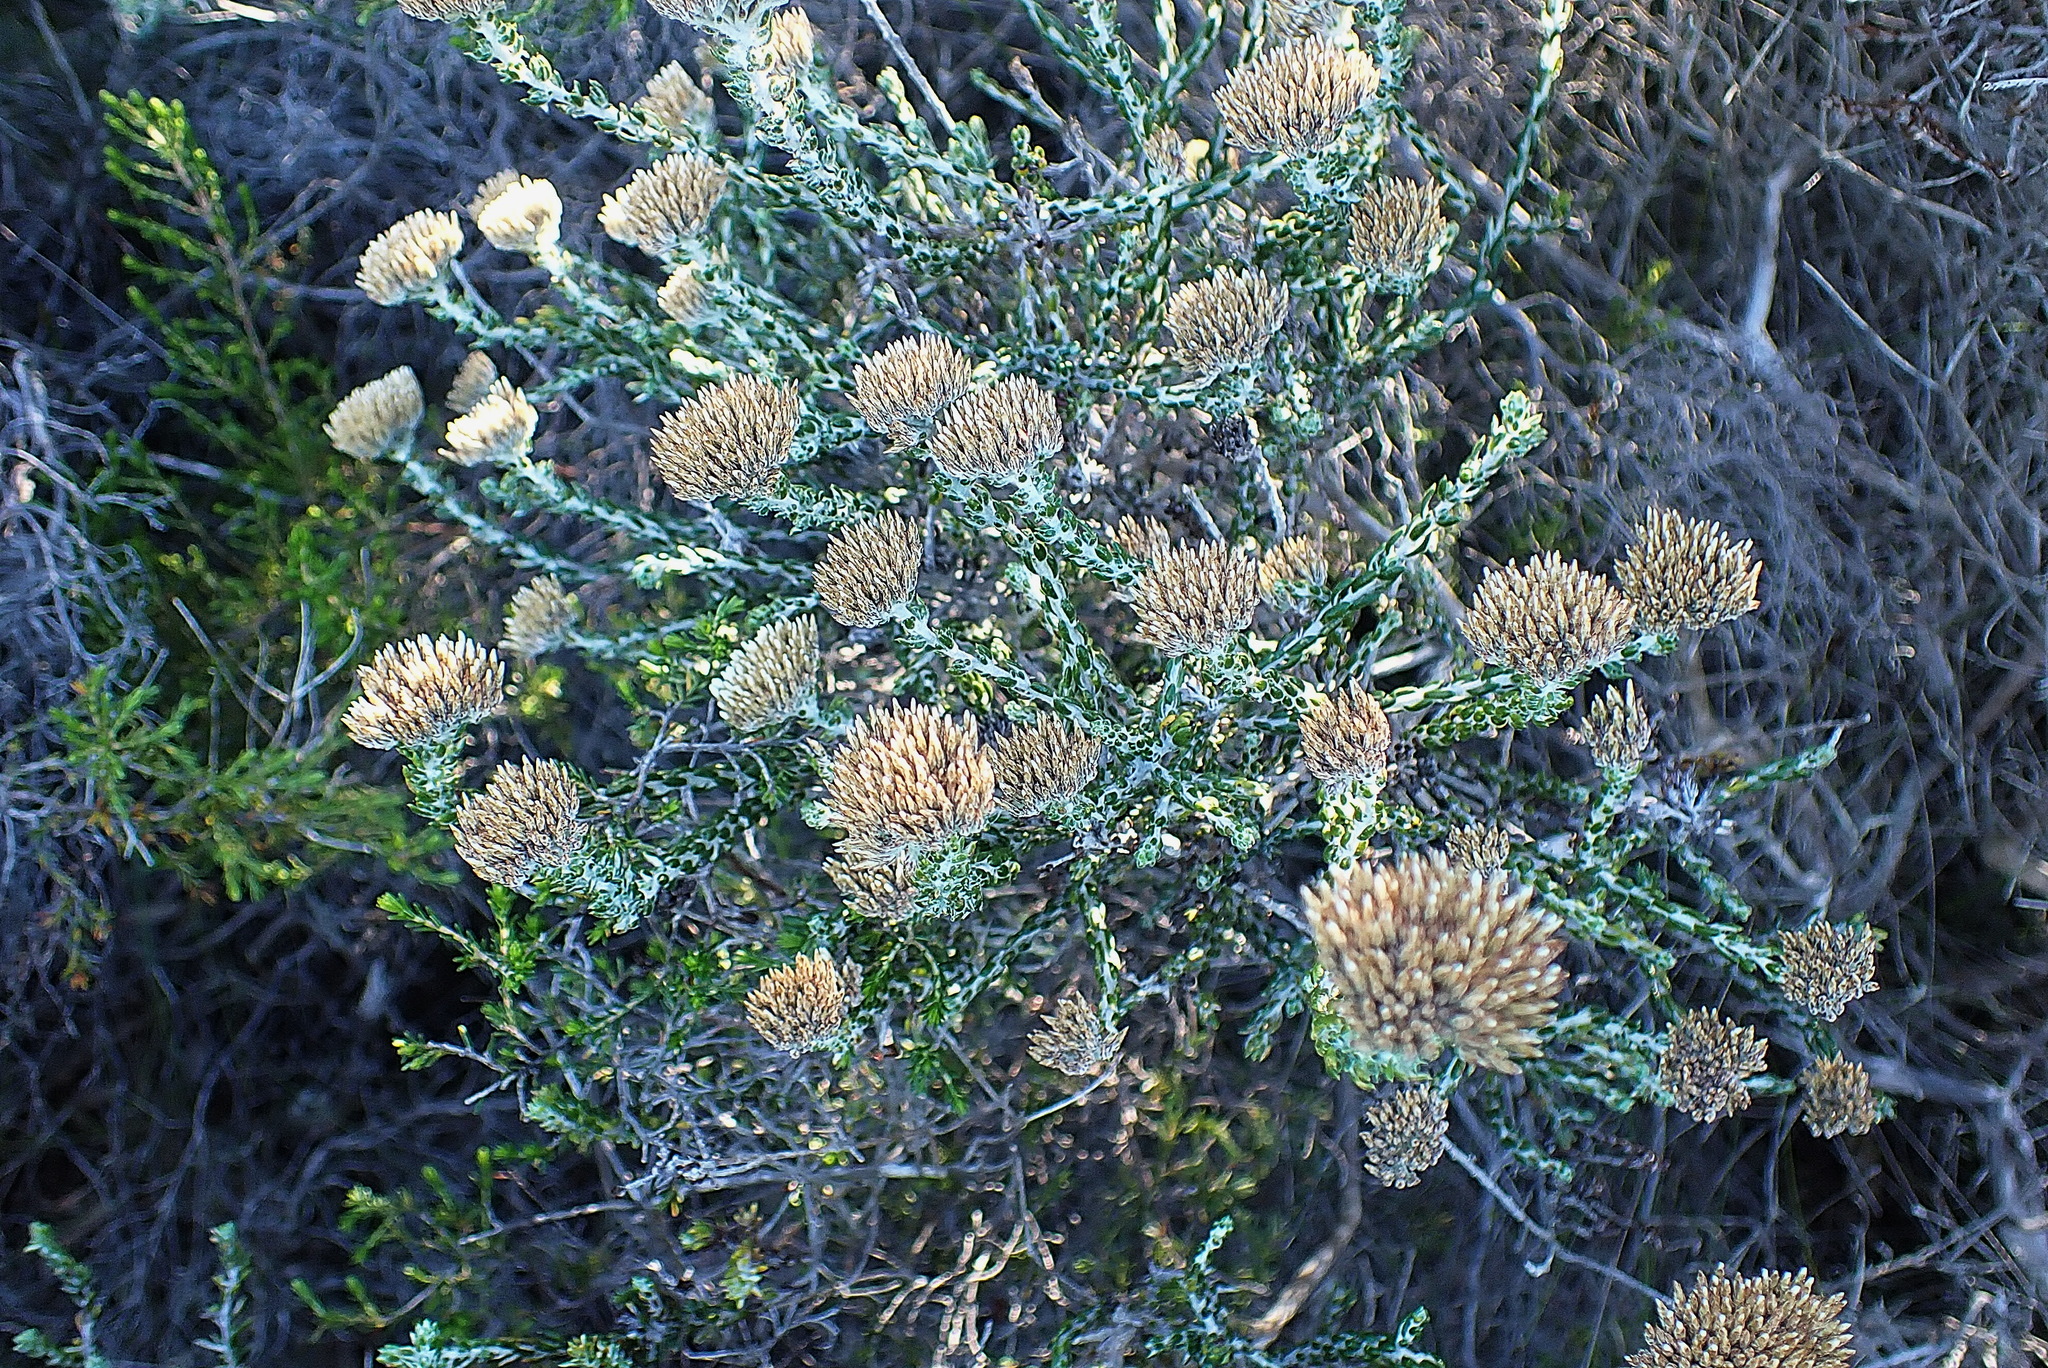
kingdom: Plantae
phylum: Tracheophyta
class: Magnoliopsida
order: Asterales
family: Asteraceae
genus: Metalasia
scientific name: Metalasia pungens
